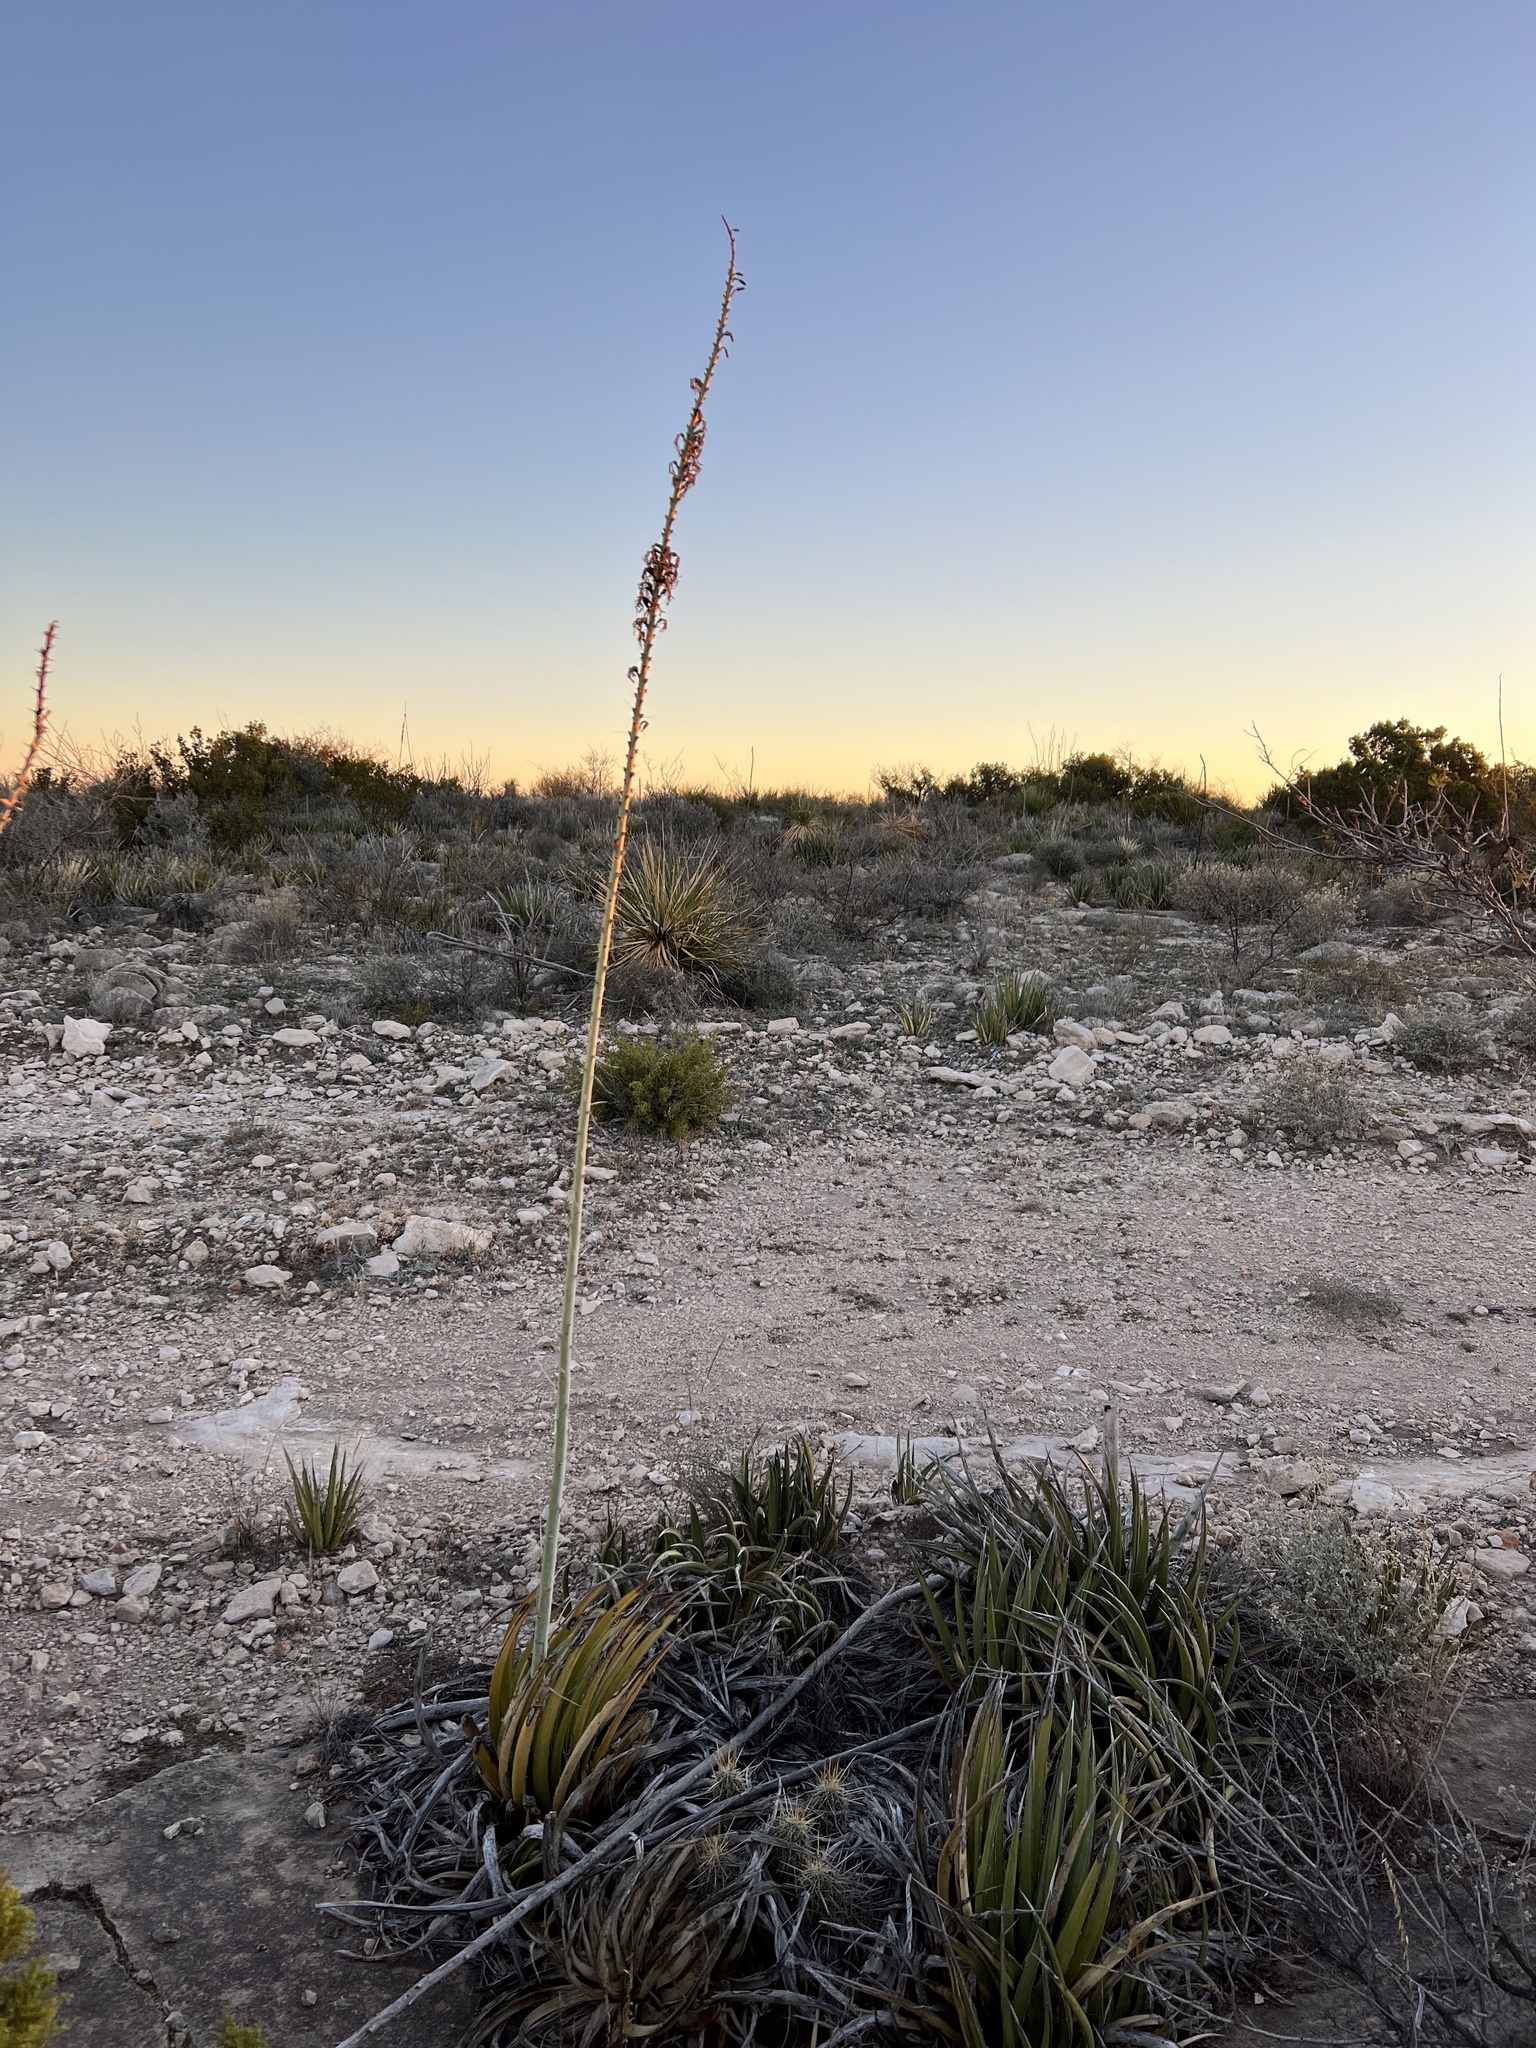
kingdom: Plantae
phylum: Tracheophyta
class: Liliopsida
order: Asparagales
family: Asparagaceae
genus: Agave
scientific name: Agave lechuguilla
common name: Lecheguilla agave
